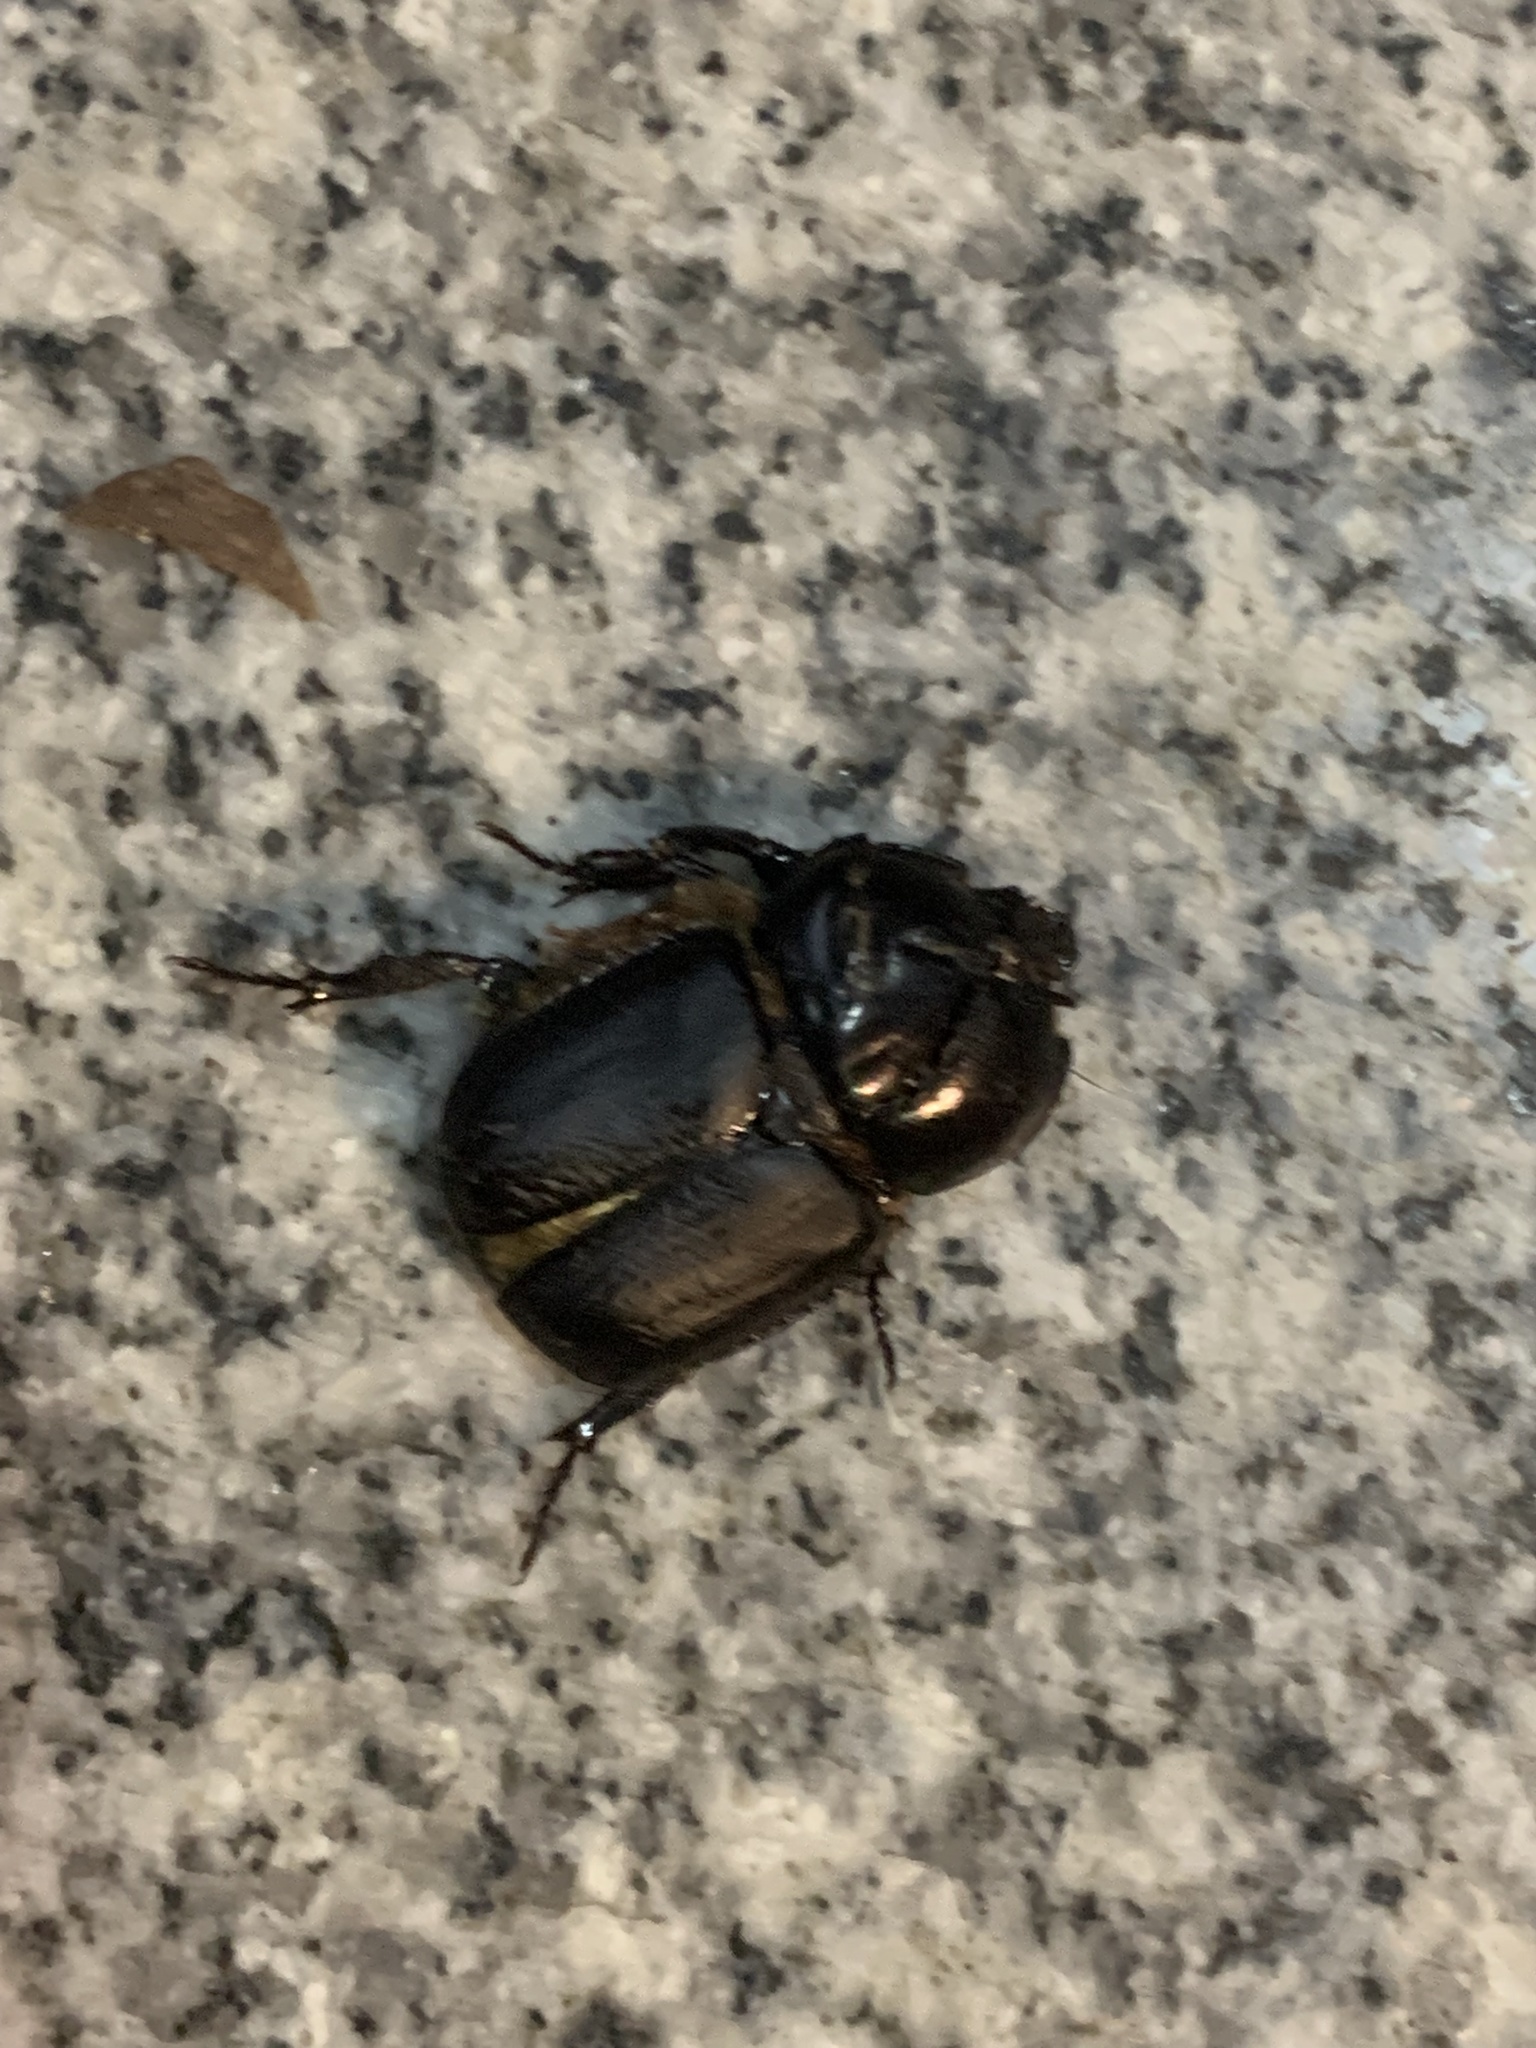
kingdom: Animalia
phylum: Arthropoda
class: Insecta
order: Coleoptera
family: Scarabaeidae
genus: Diloboderus
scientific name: Diloboderus abderus
